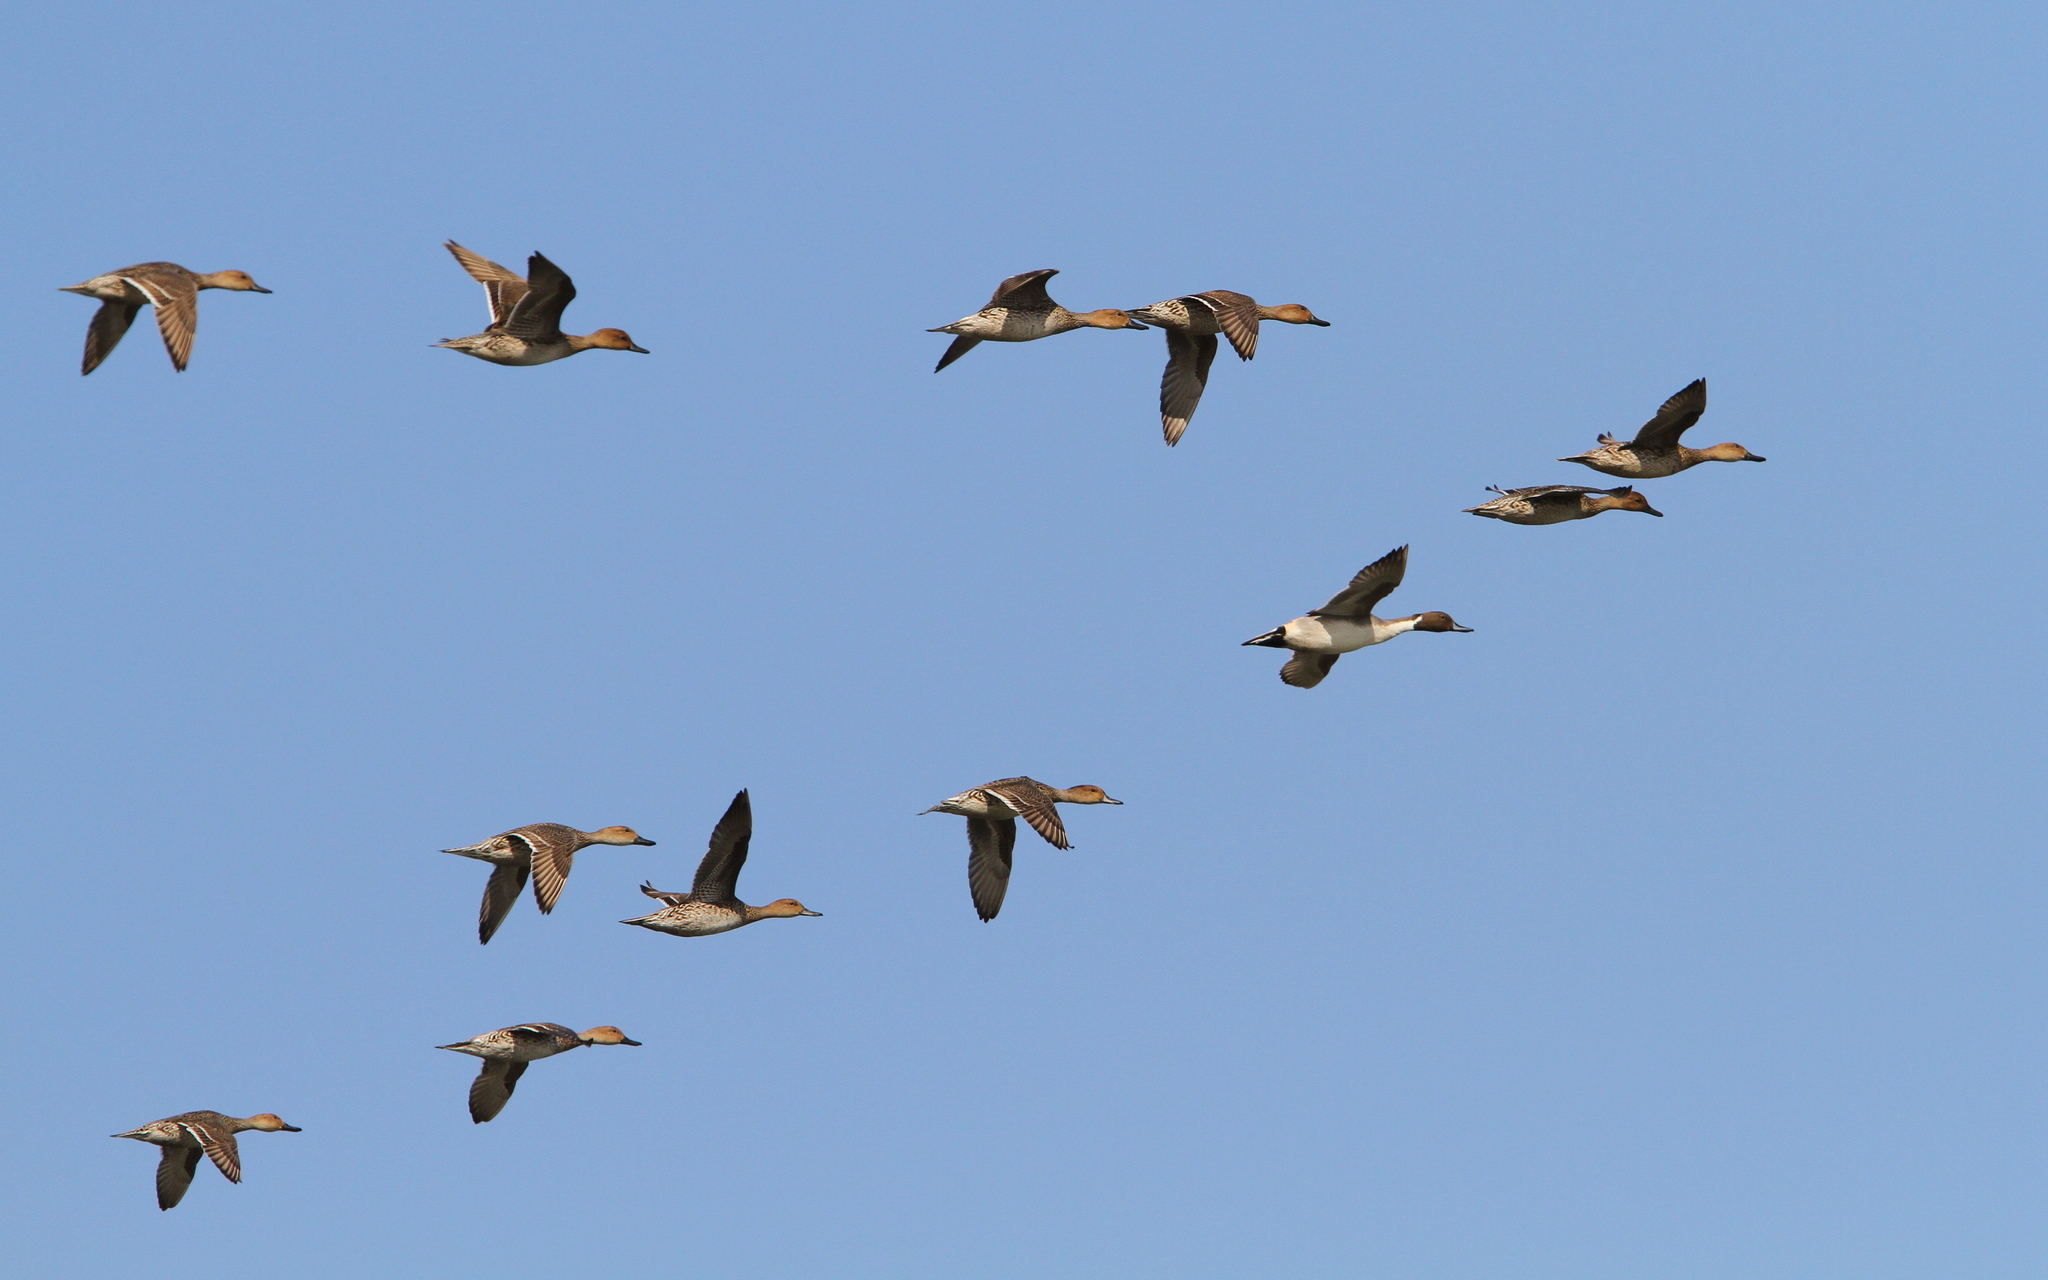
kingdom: Animalia
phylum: Chordata
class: Aves
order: Anseriformes
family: Anatidae
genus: Anas
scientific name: Anas acuta
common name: Northern pintail
